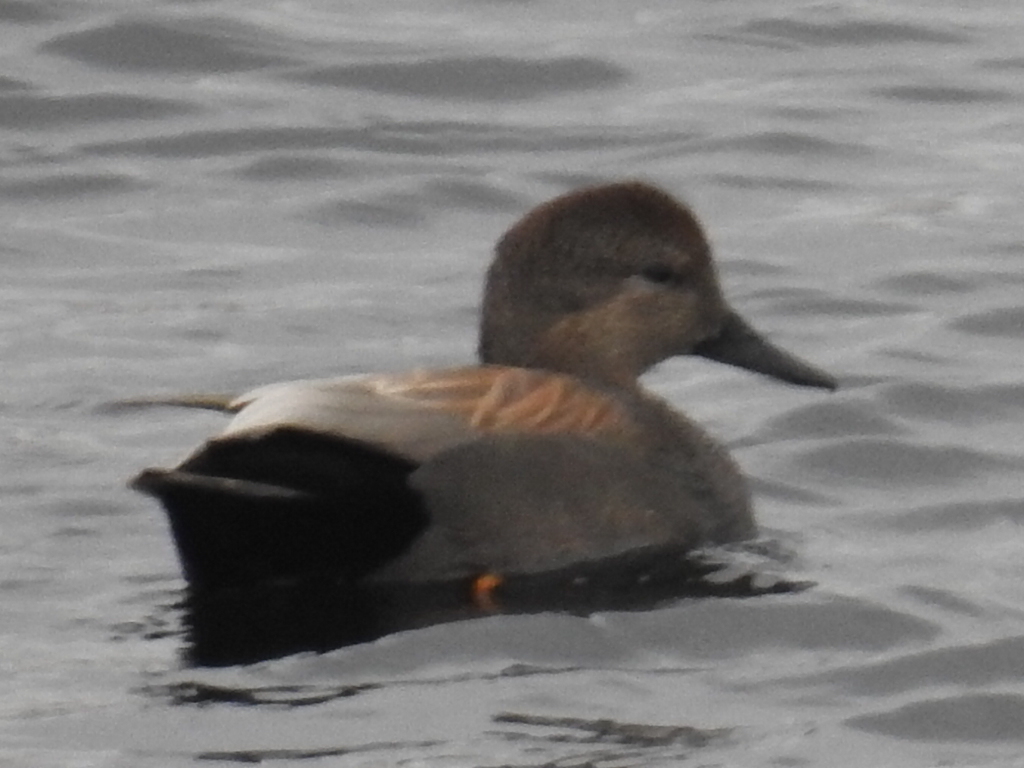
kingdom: Animalia
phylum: Chordata
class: Aves
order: Anseriformes
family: Anatidae
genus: Mareca
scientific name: Mareca strepera
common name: Gadwall
